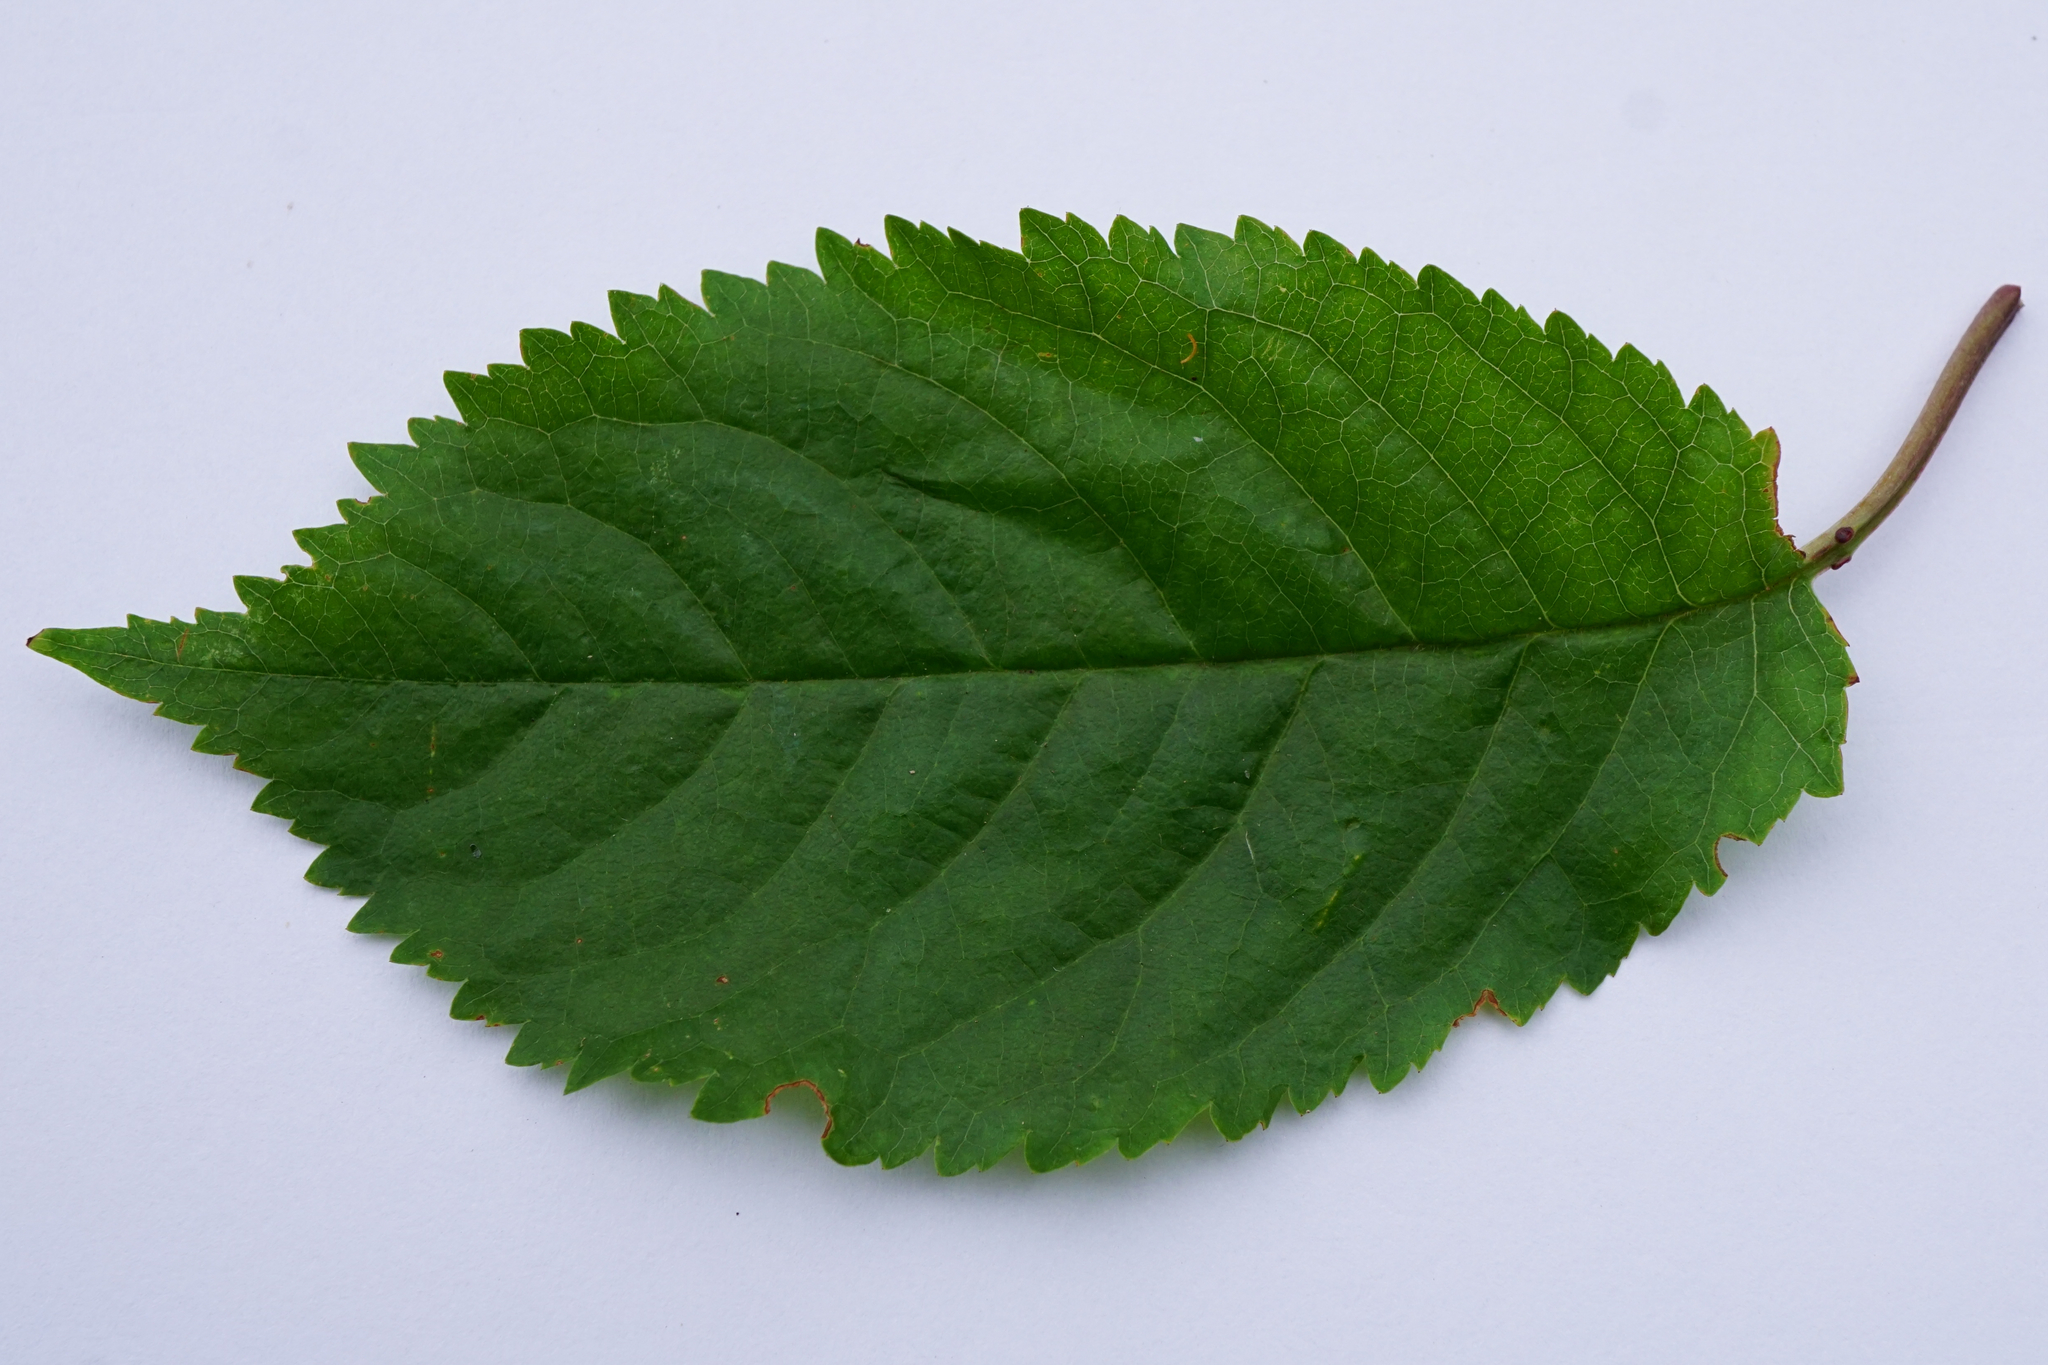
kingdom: Plantae
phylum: Tracheophyta
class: Magnoliopsida
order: Rosales
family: Rosaceae
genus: Prunus
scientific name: Prunus avium
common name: Sweet cherry
